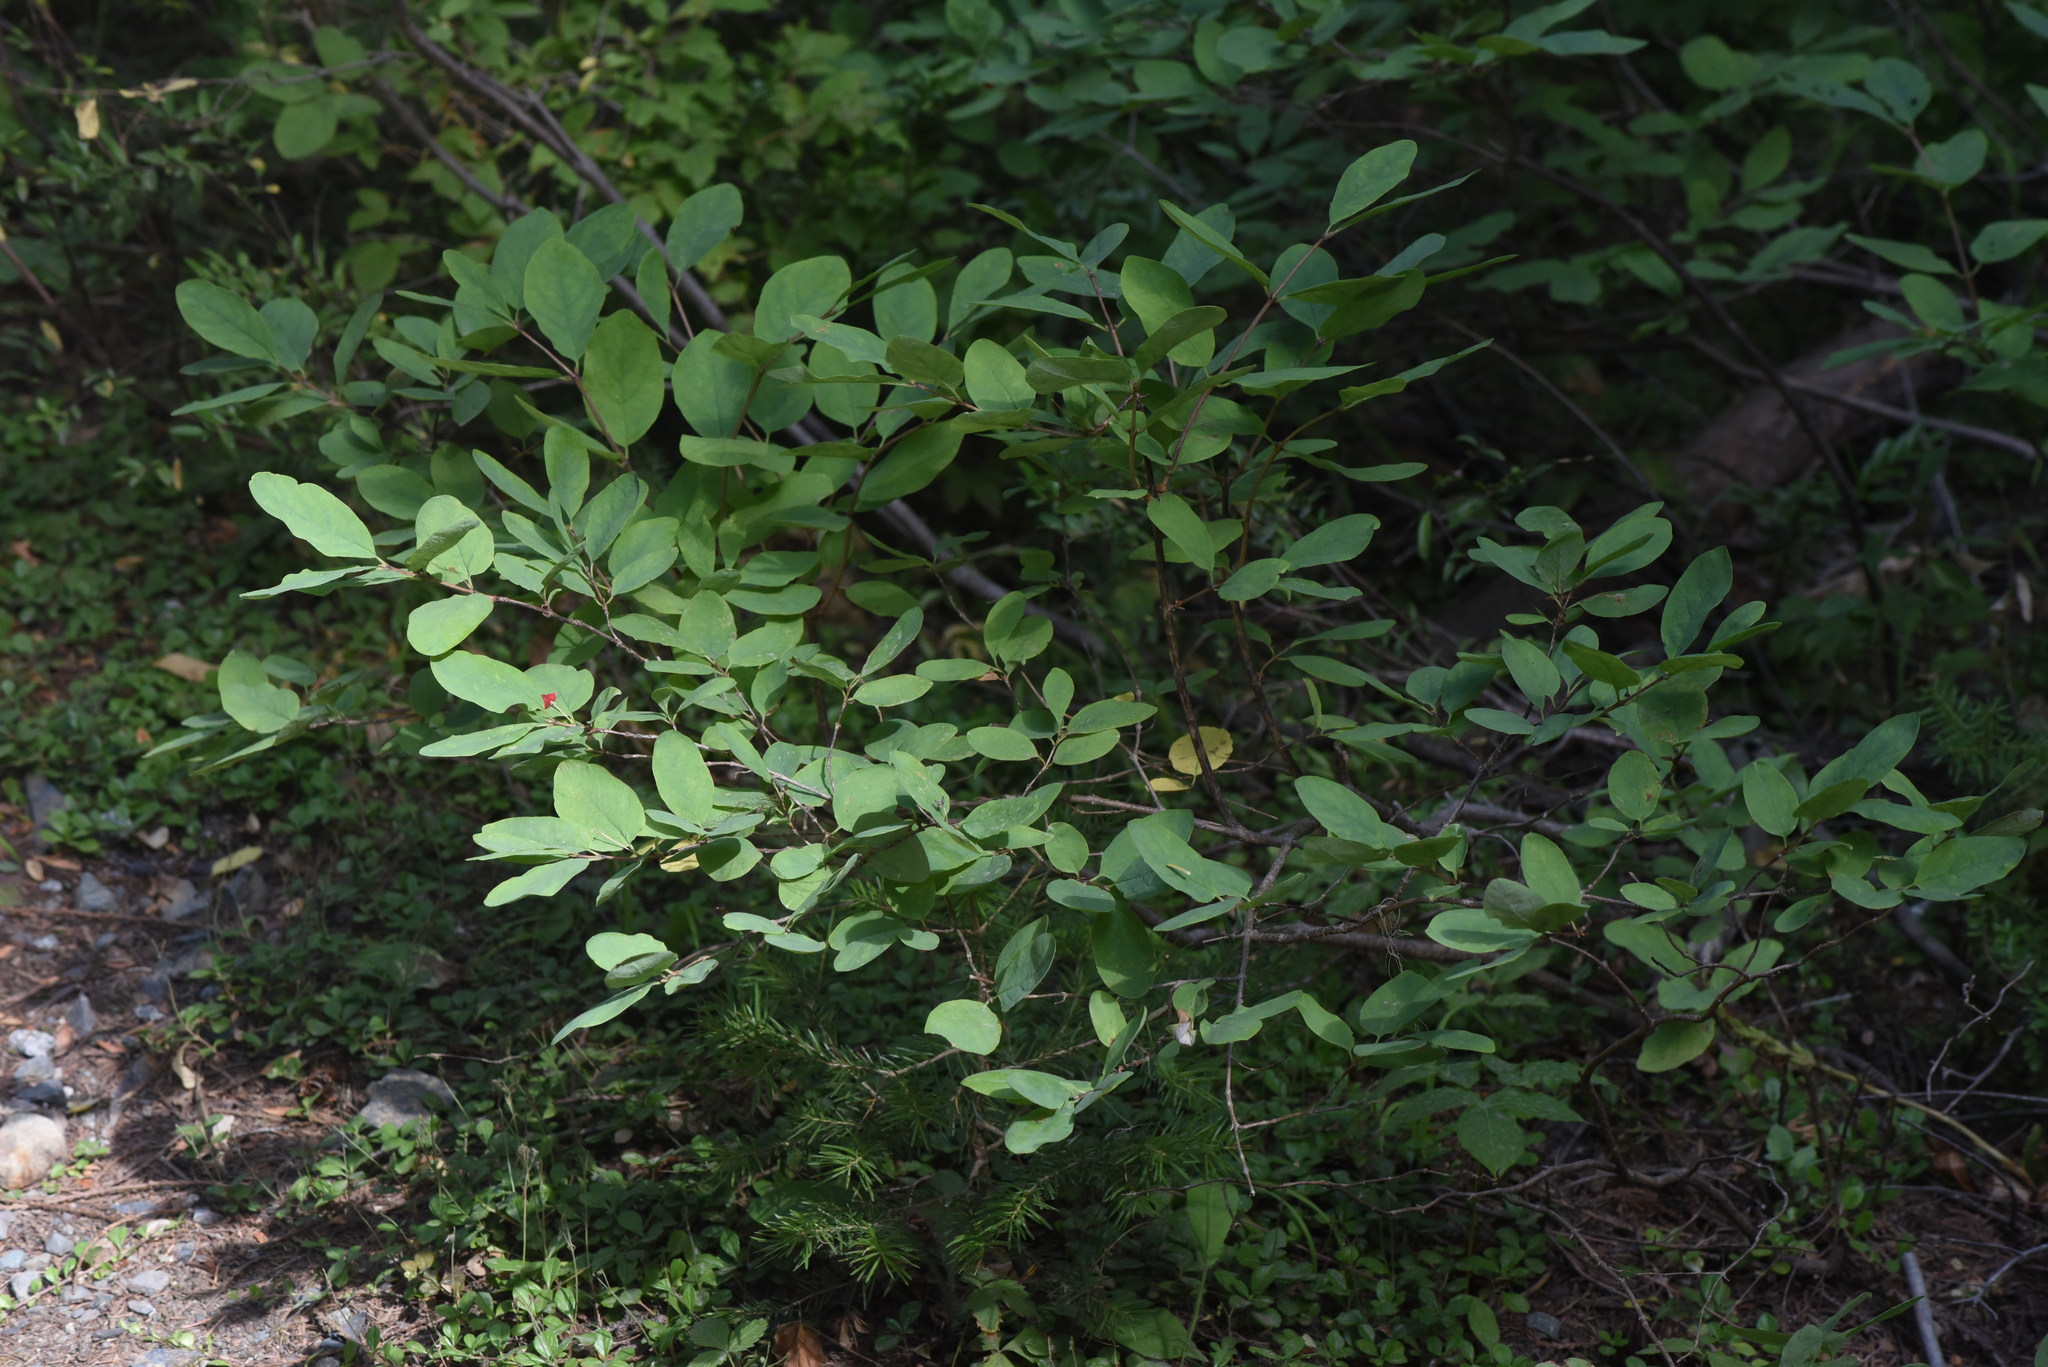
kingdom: Plantae
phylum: Tracheophyta
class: Magnoliopsida
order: Dipsacales
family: Caprifoliaceae
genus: Lonicera
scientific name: Lonicera utahensis
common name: Utah honeysuckle
